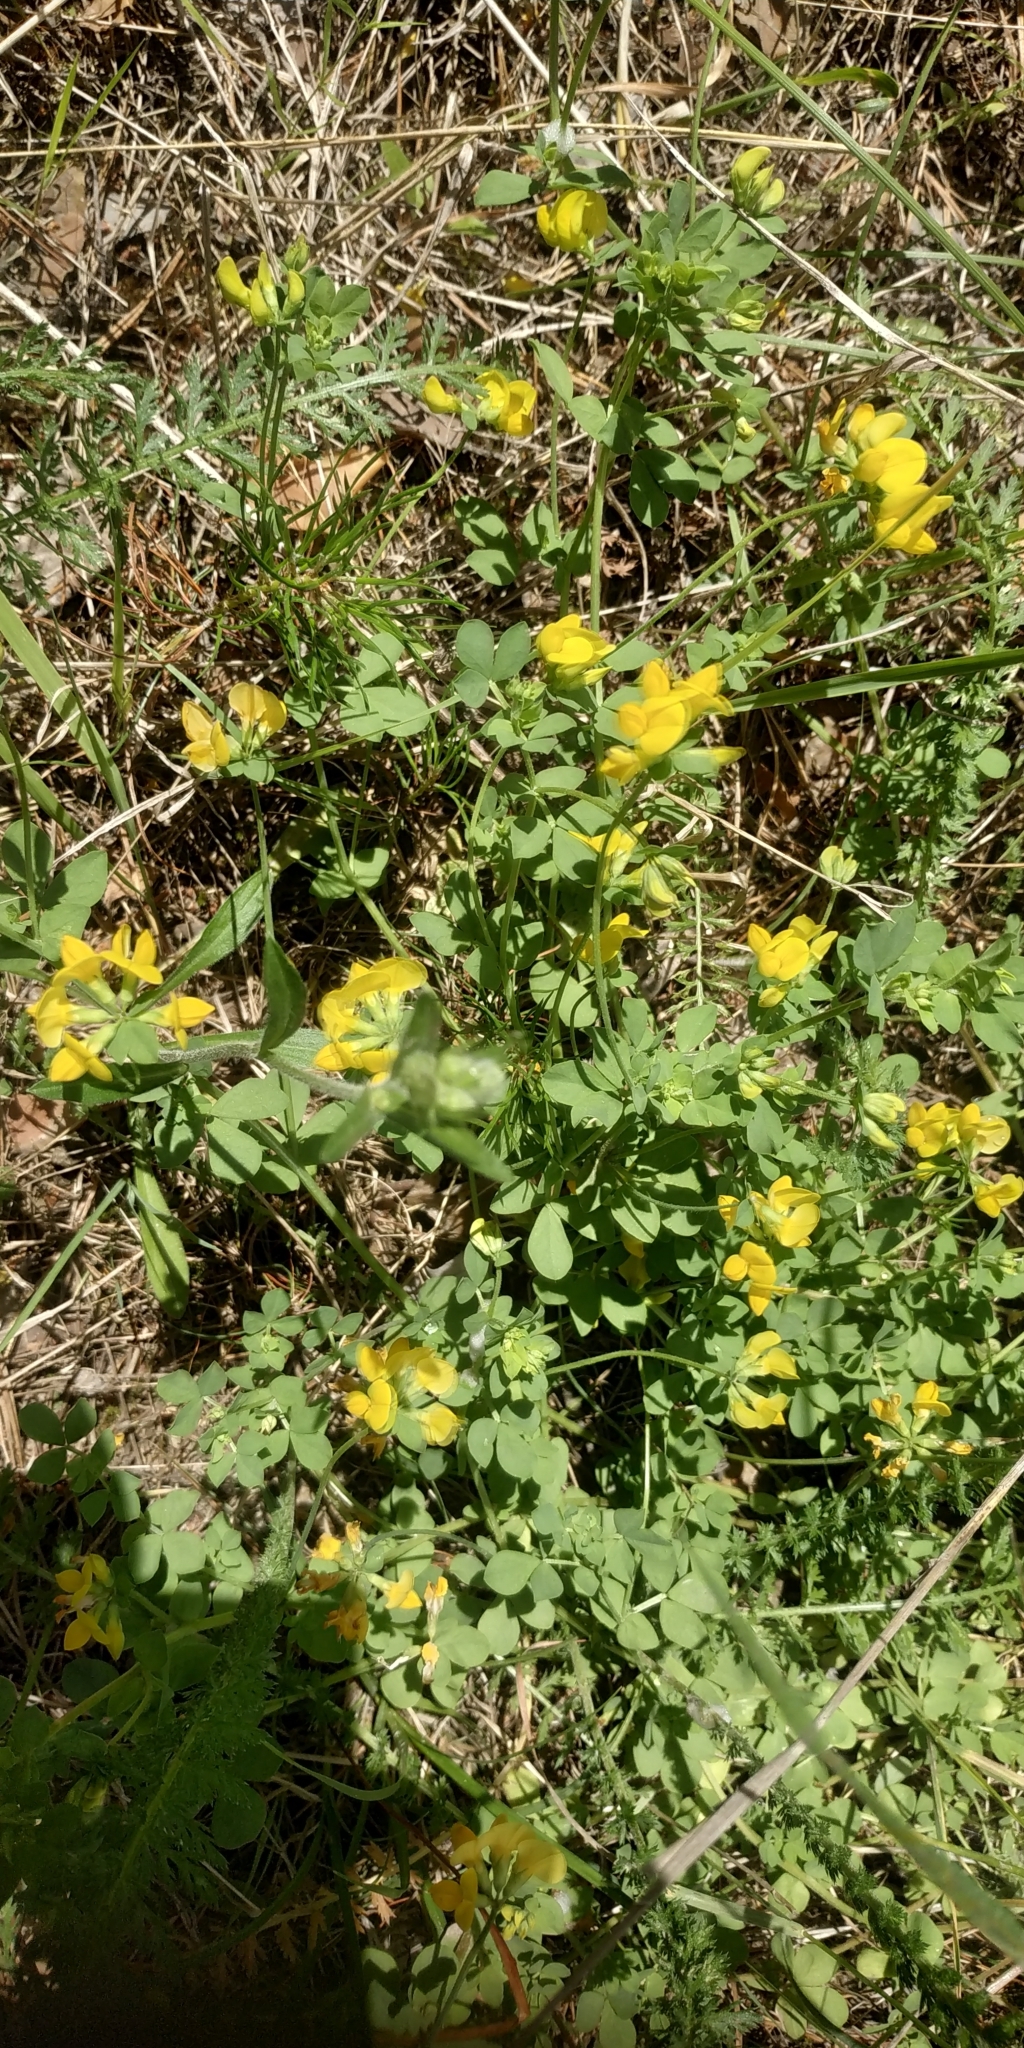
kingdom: Plantae
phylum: Tracheophyta
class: Magnoliopsida
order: Fabales
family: Fabaceae
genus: Lotus
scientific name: Lotus corniculatus
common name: Common bird's-foot-trefoil
